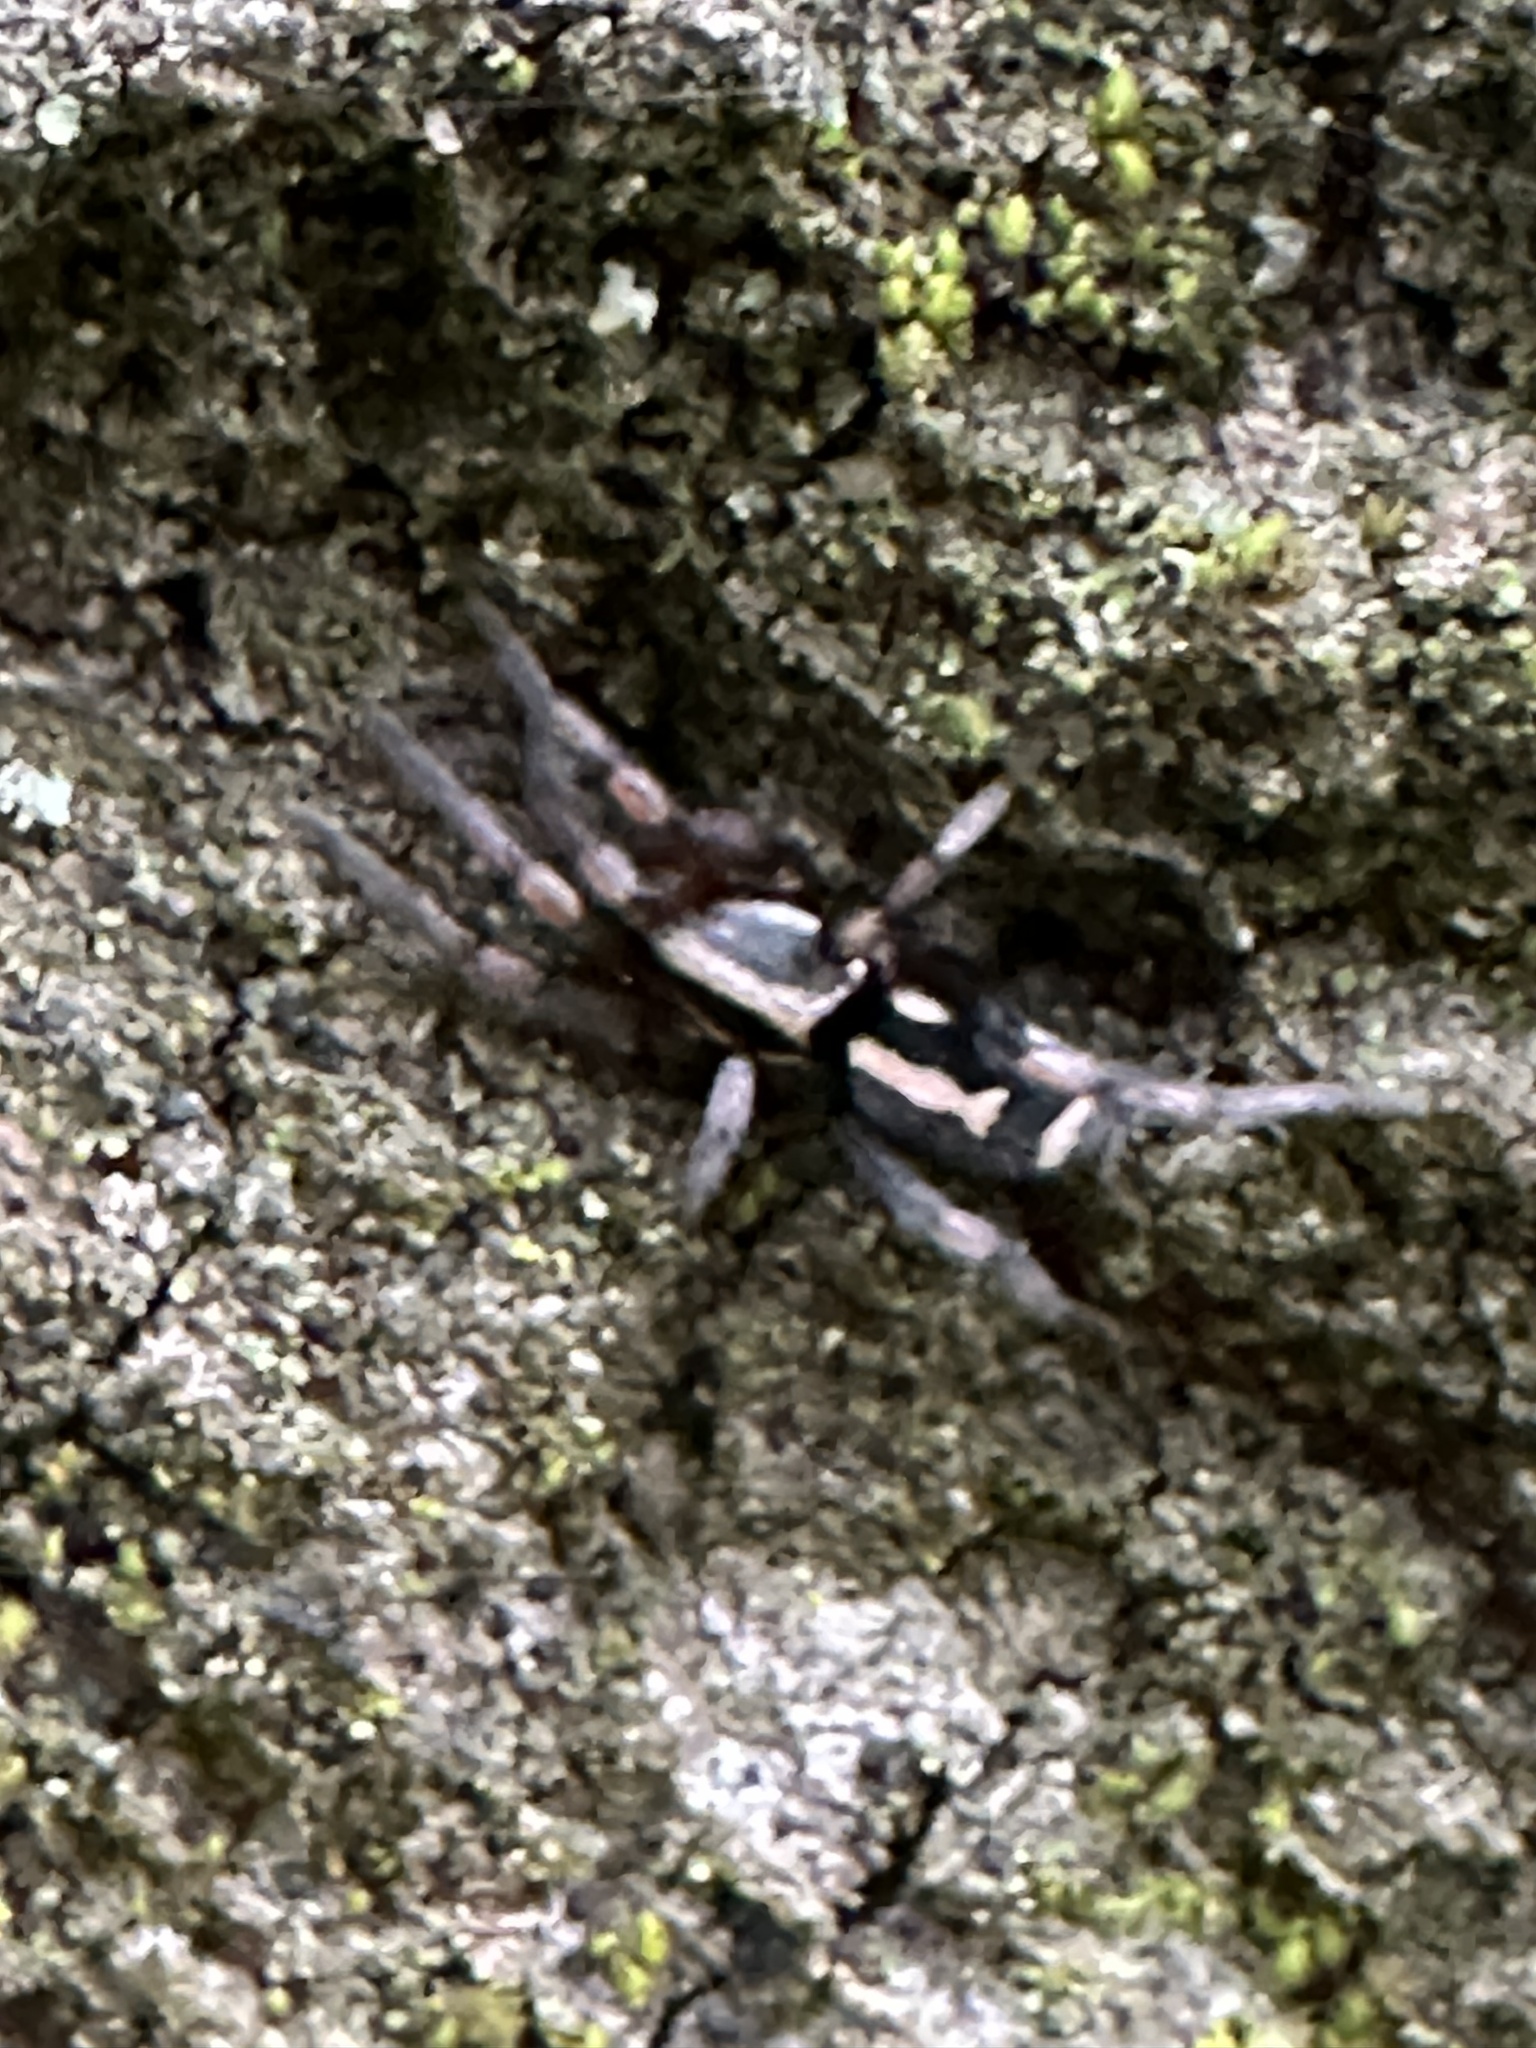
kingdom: Animalia
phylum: Arthropoda
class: Arachnida
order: Araneae
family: Gnaphosidae
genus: Herpyllus
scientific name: Herpyllus propinquus
